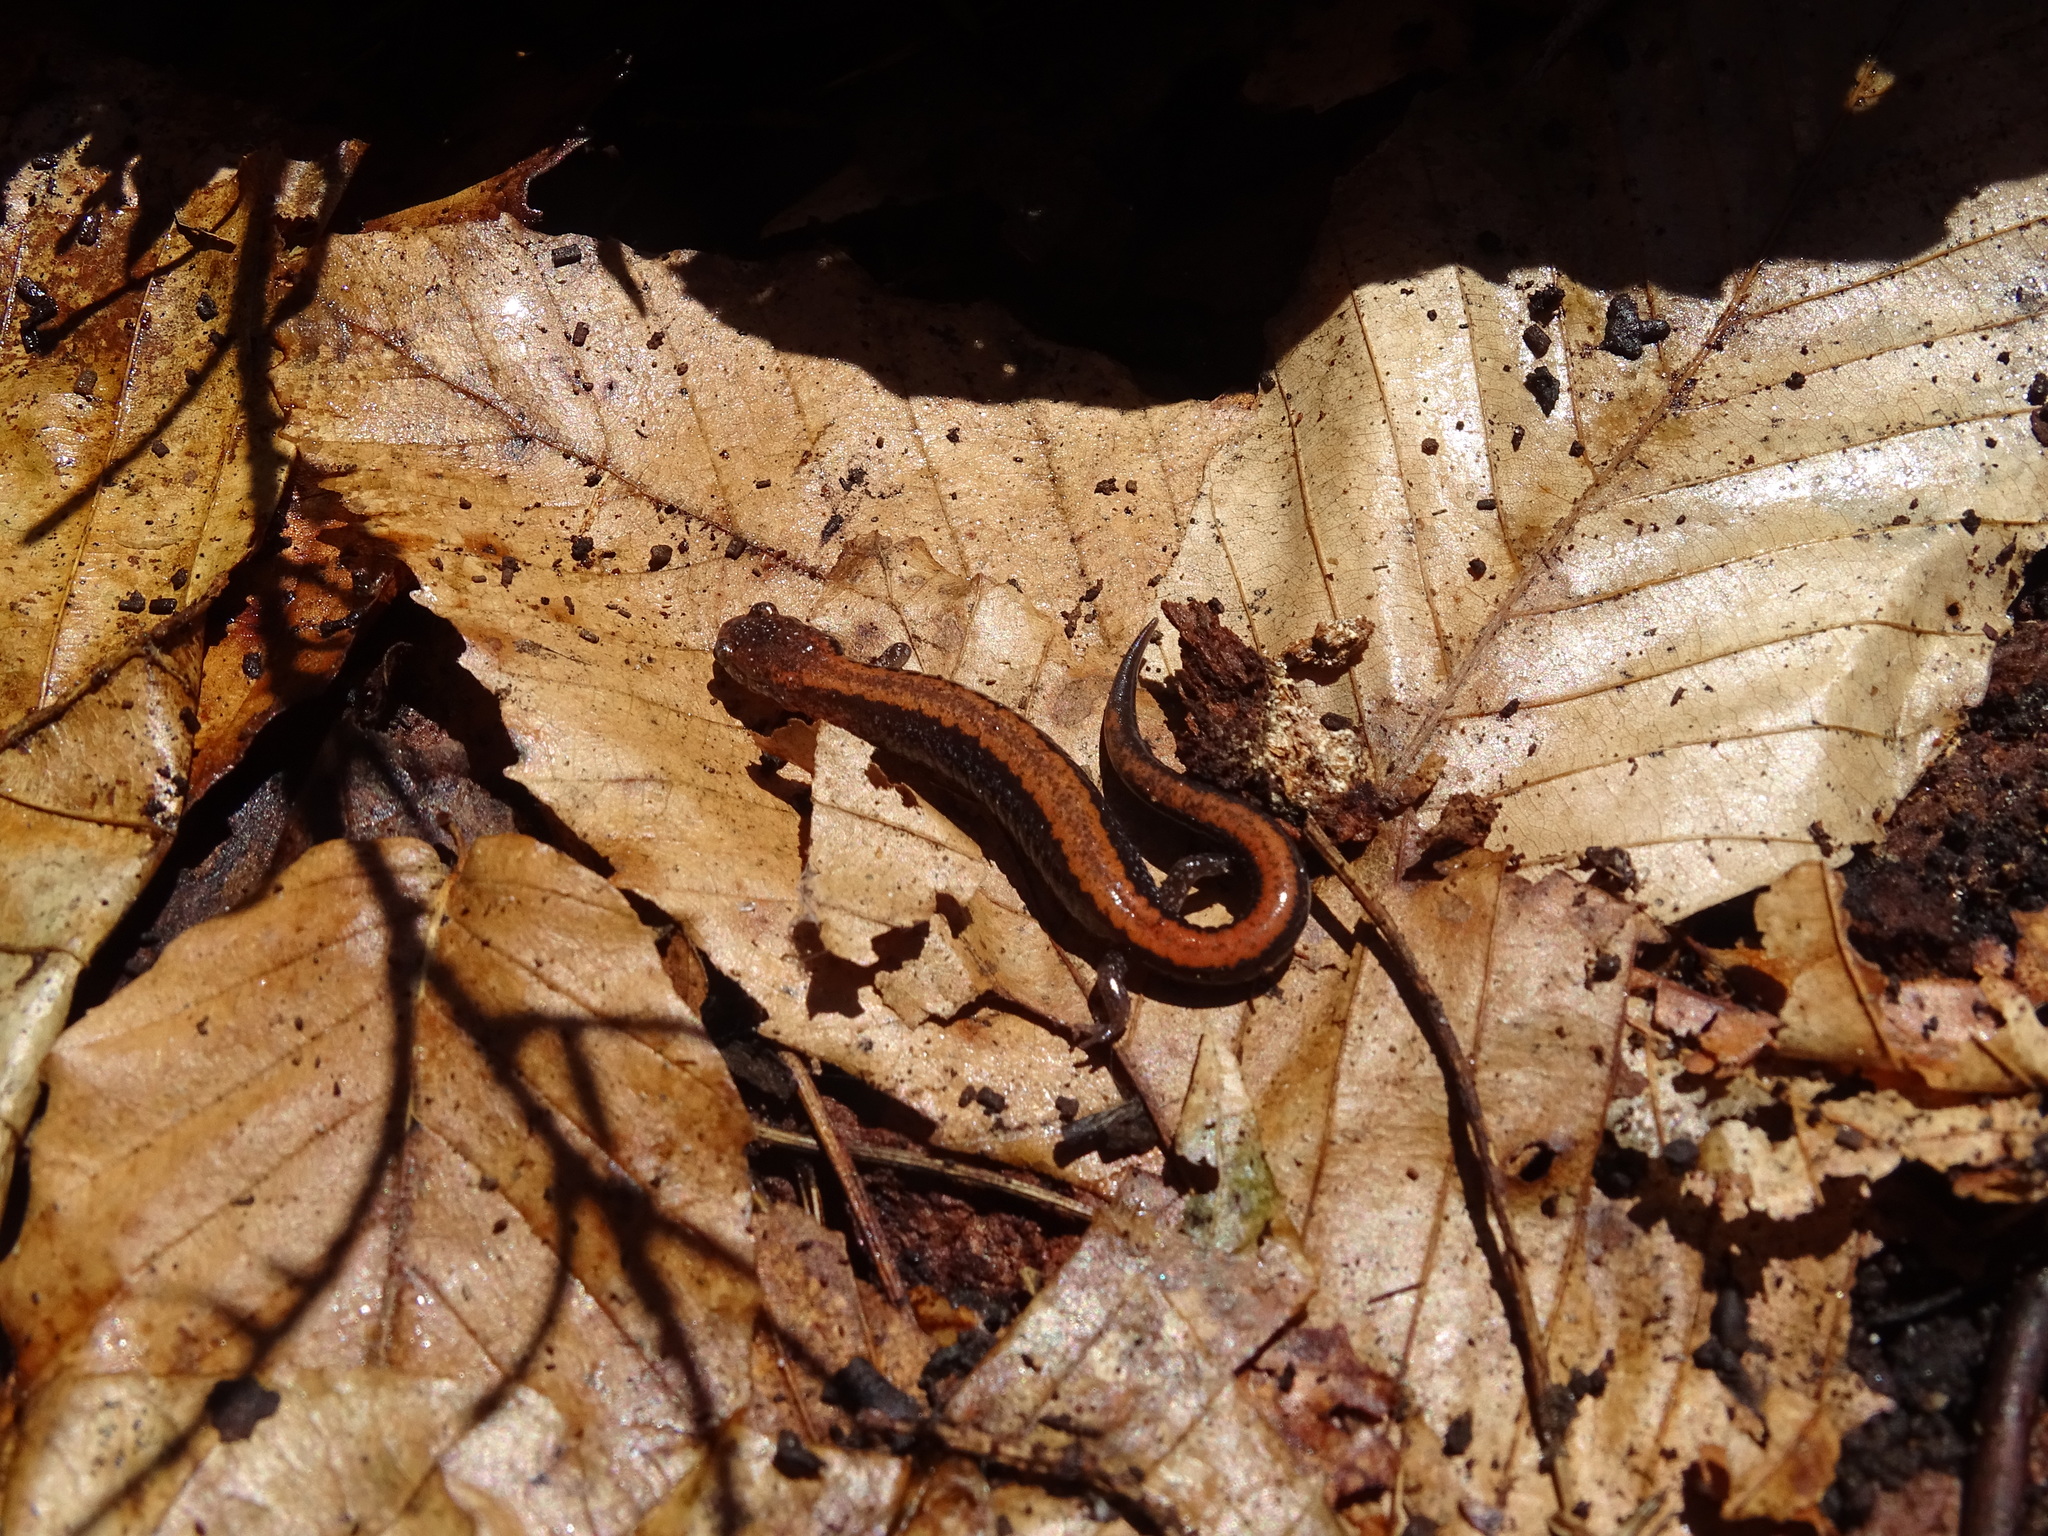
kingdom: Animalia
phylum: Chordata
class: Amphibia
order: Caudata
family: Plethodontidae
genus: Plethodon
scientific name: Plethodon cinereus
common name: Redback salamander
